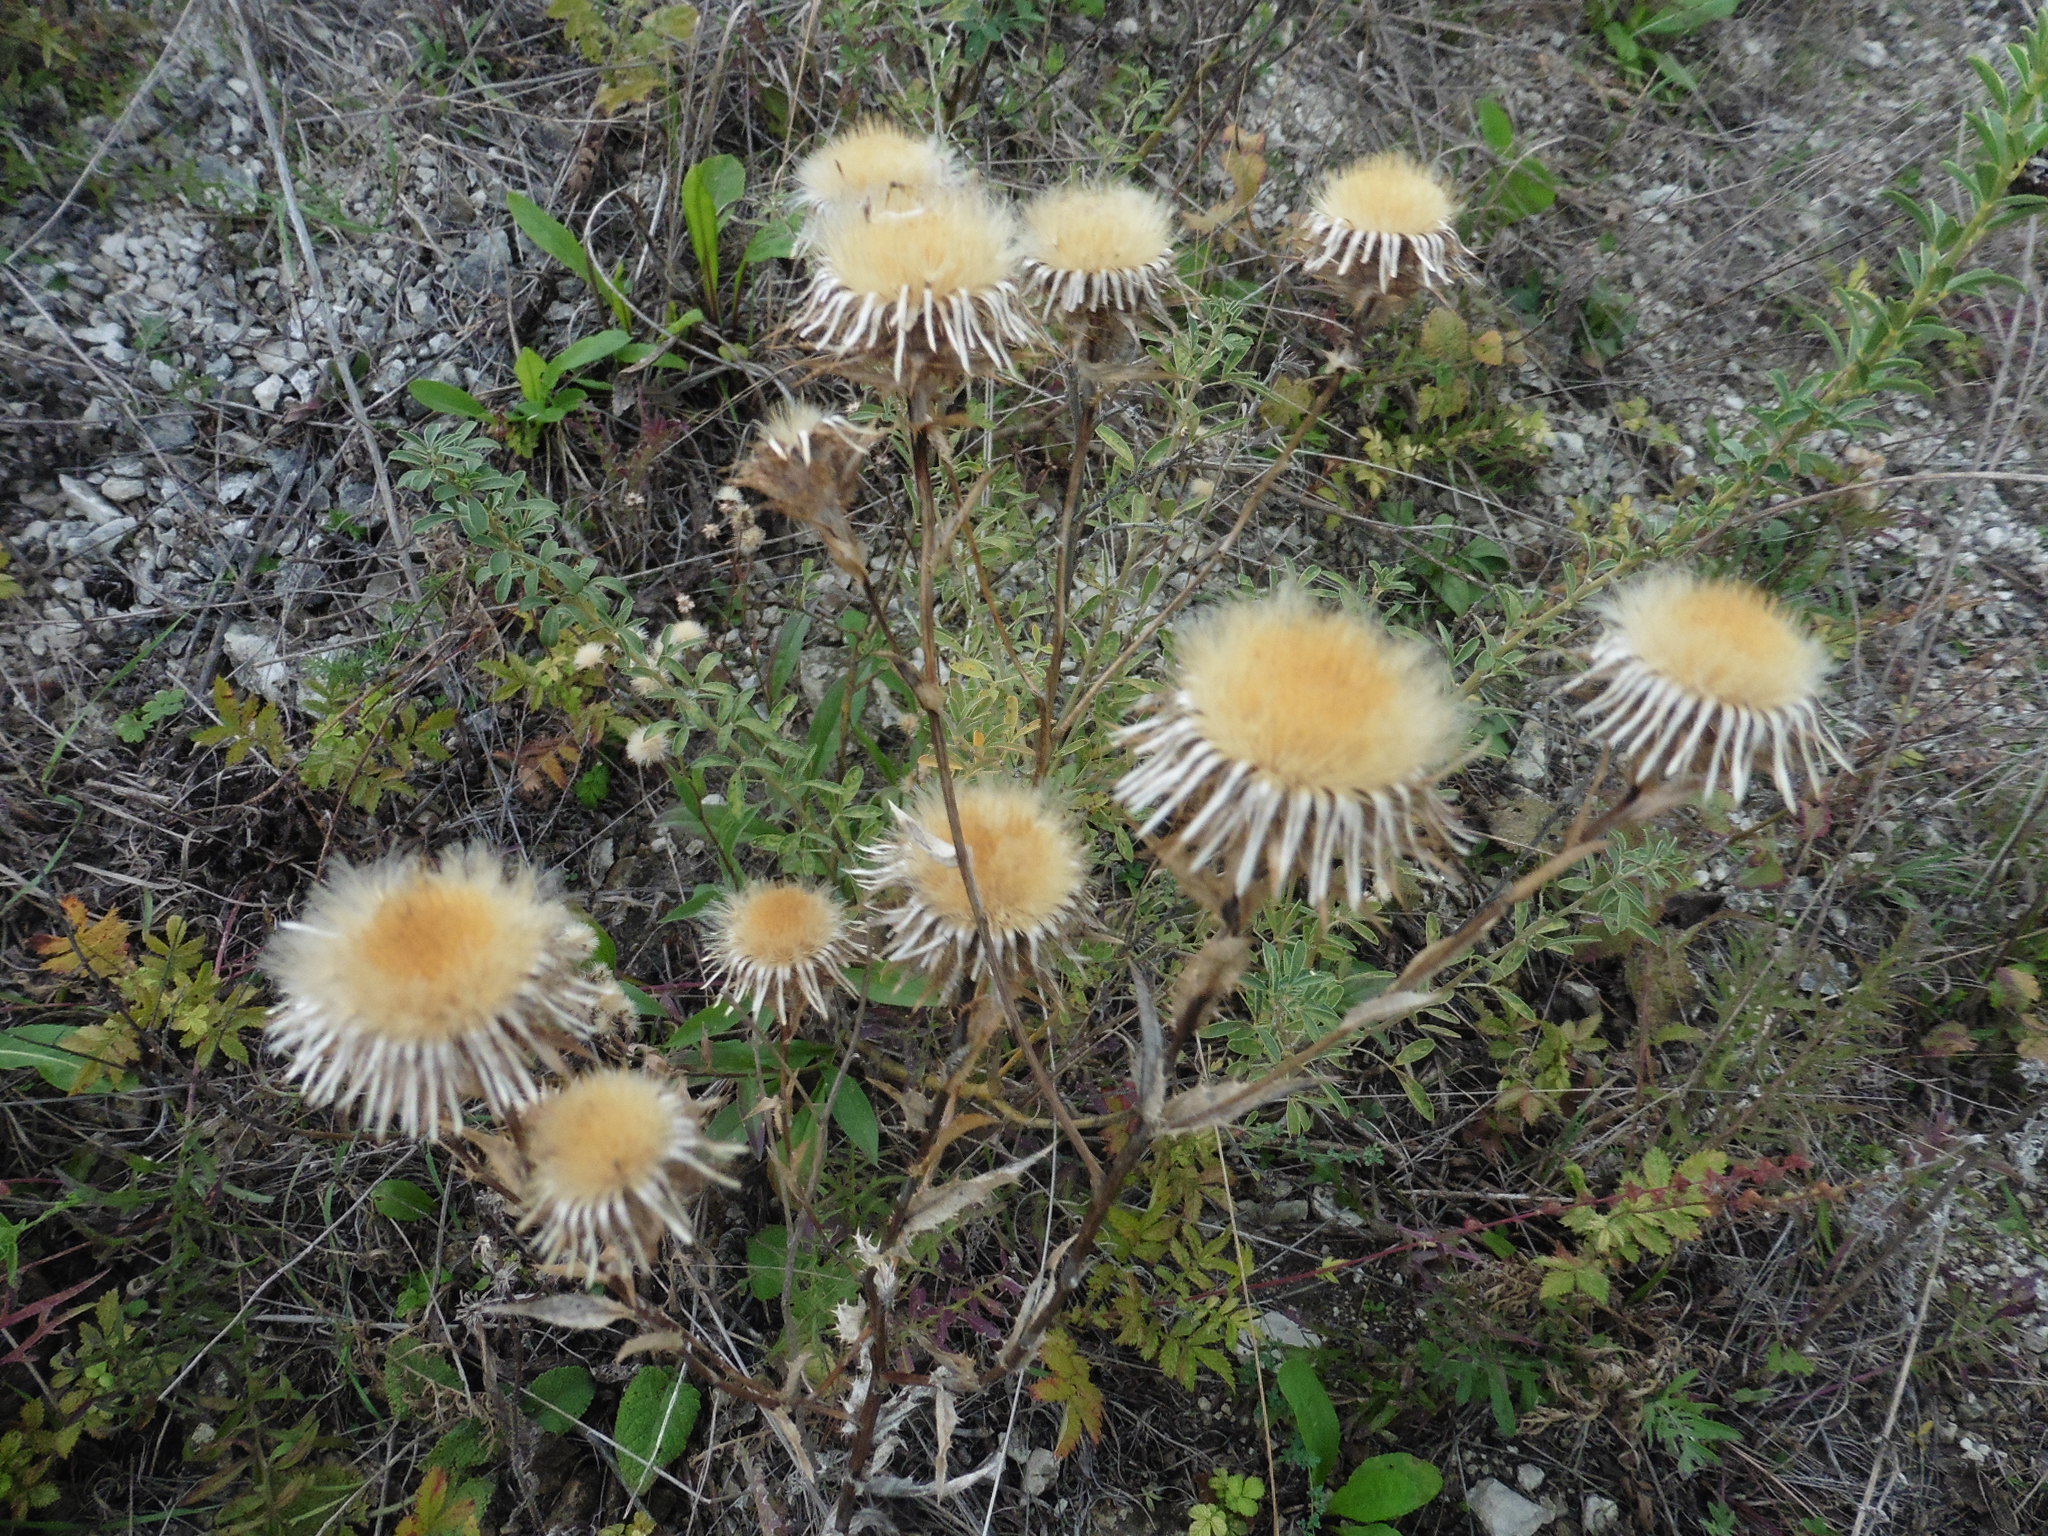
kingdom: Plantae
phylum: Tracheophyta
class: Magnoliopsida
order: Asterales
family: Asteraceae
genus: Carlina
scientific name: Carlina biebersteinii
